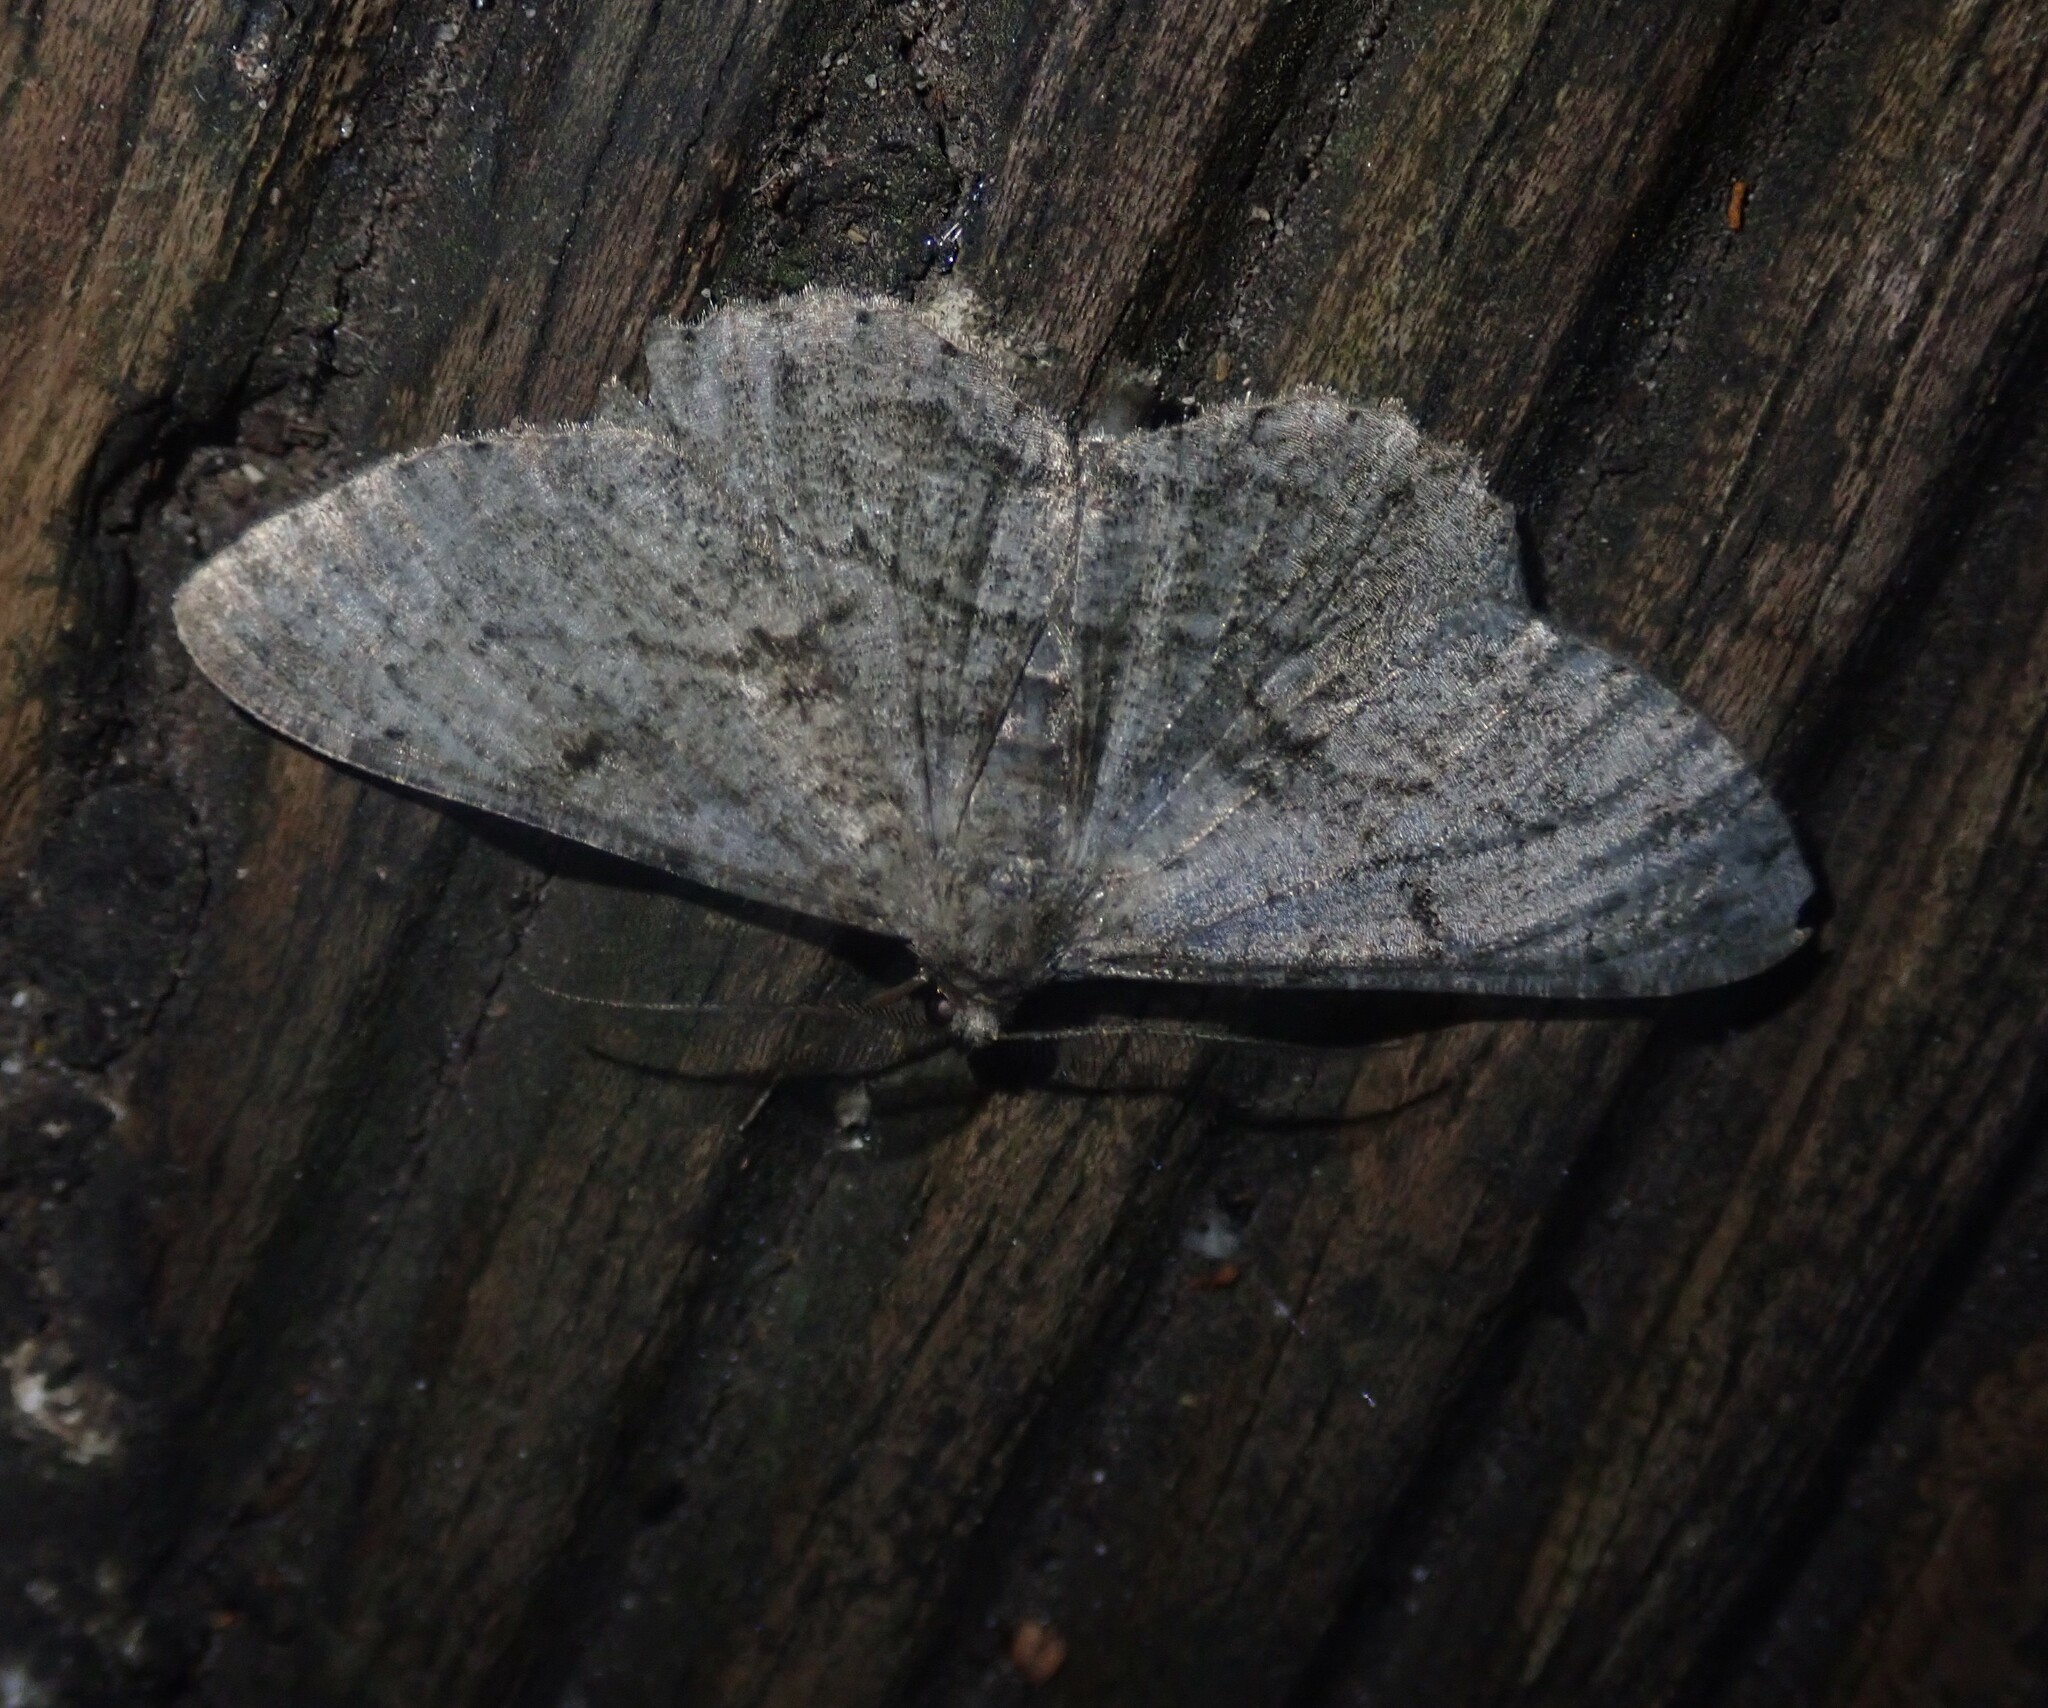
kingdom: Animalia
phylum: Arthropoda
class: Insecta
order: Lepidoptera
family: Geometridae
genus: Peribatodes
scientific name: Peribatodes rhomboidaria
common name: Willow beauty
